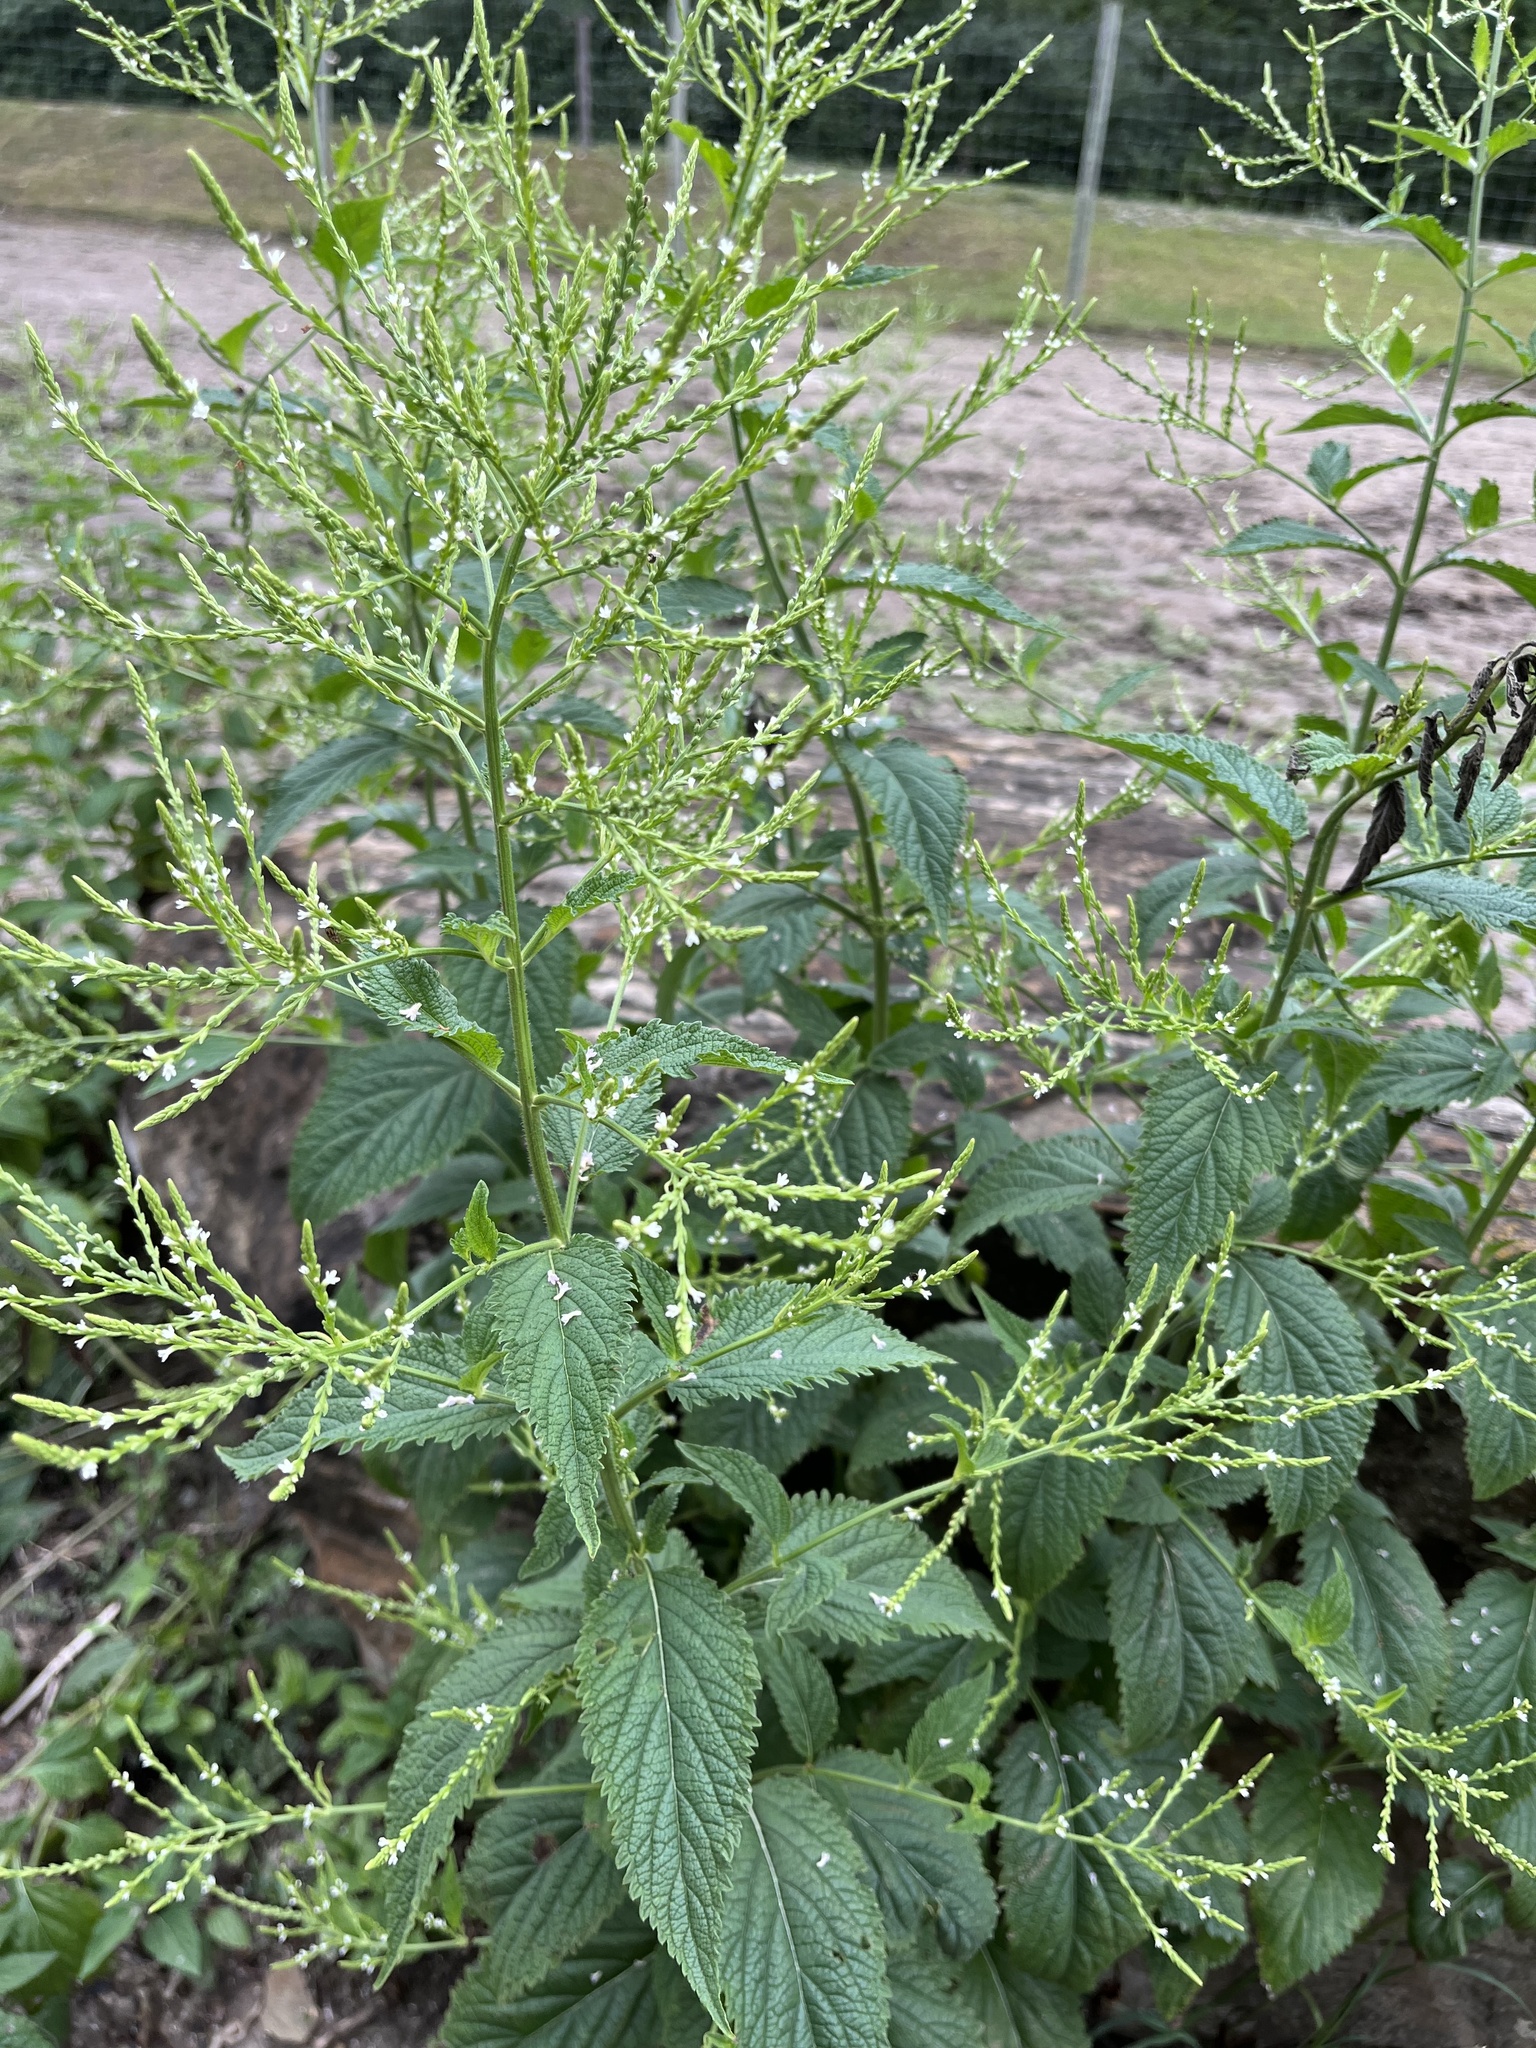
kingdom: Plantae
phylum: Tracheophyta
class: Magnoliopsida
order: Lamiales
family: Verbenaceae
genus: Verbena
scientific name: Verbena urticifolia
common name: Nettle-leaved vervain
